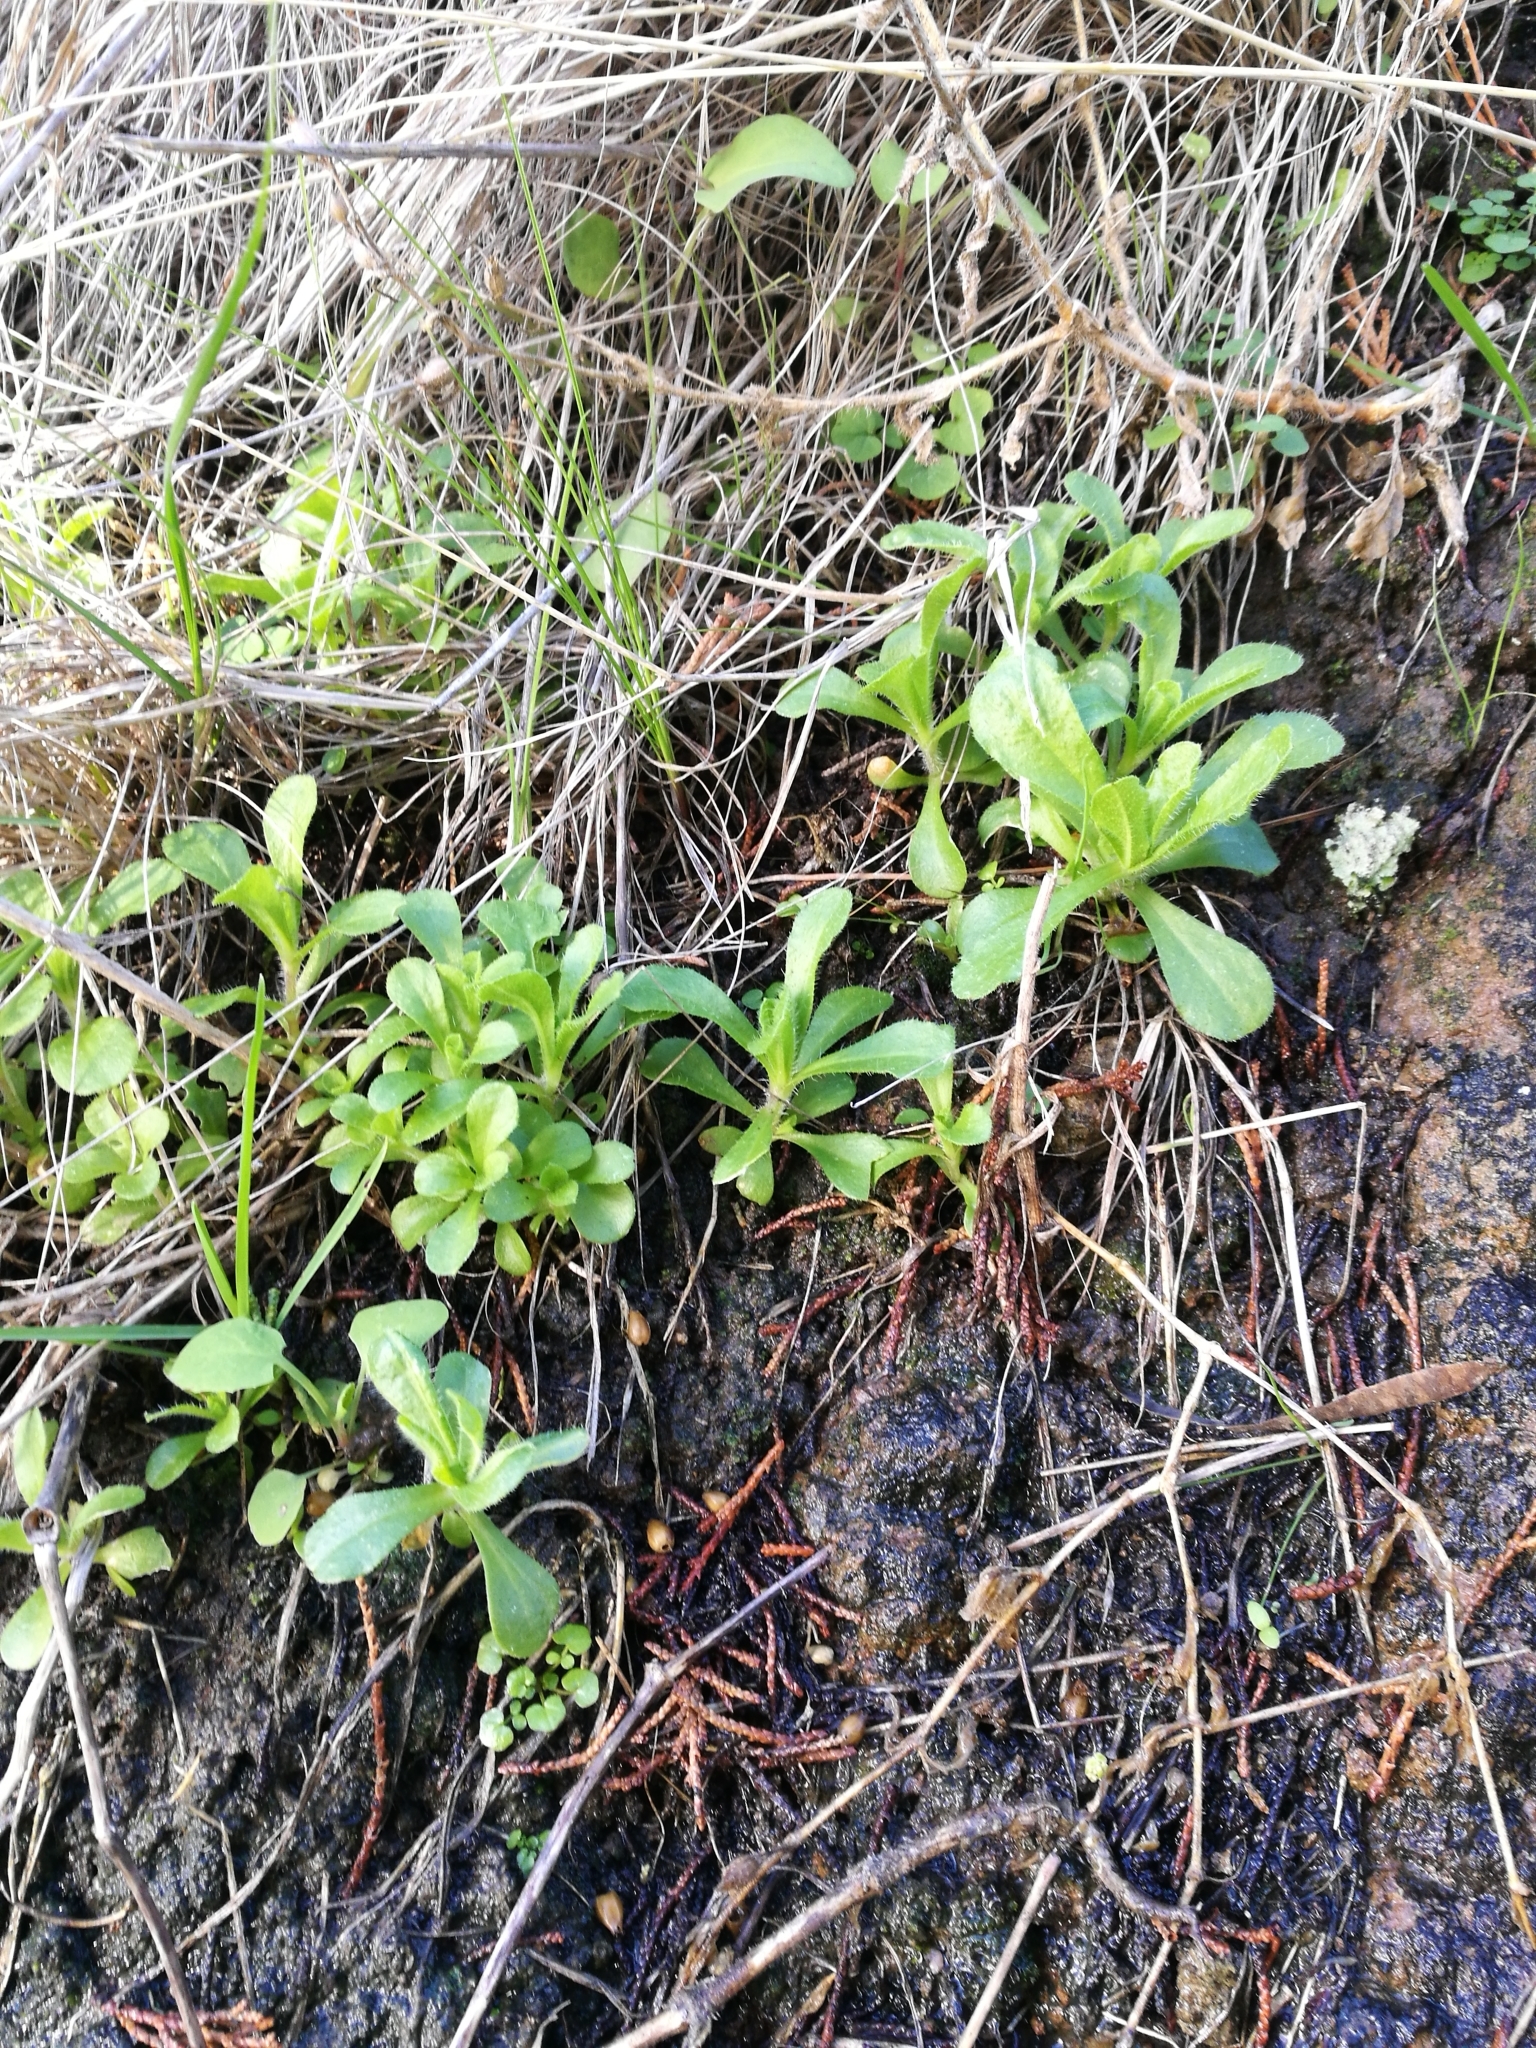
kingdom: Plantae
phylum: Tracheophyta
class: Magnoliopsida
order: Asterales
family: Asteraceae
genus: Helminthotheca
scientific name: Helminthotheca echioides
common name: Ox-tongue
